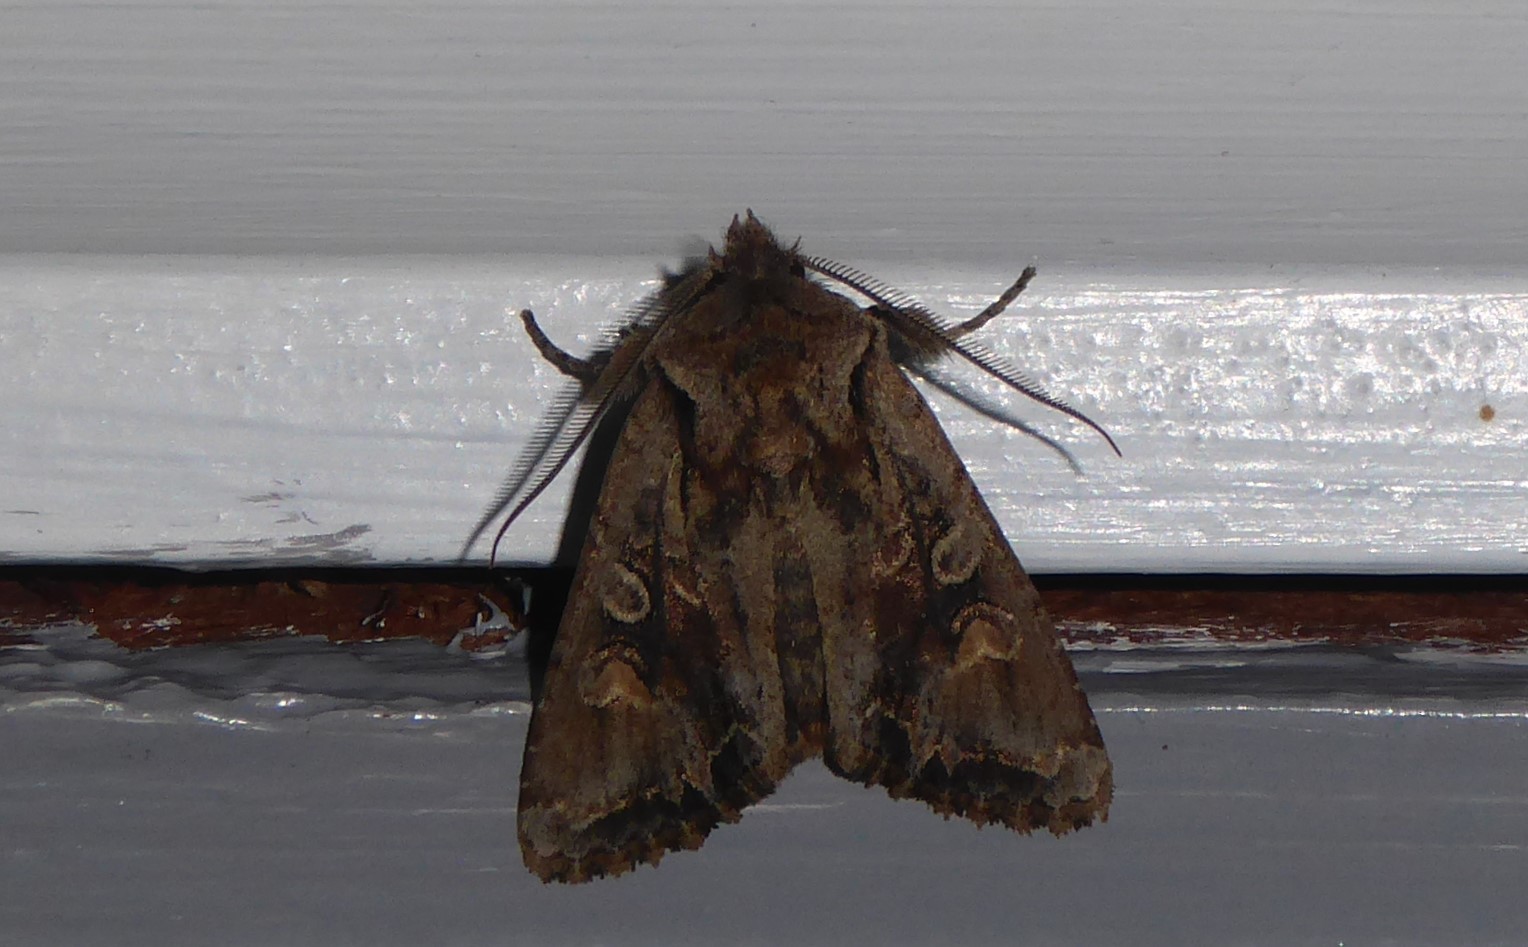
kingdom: Animalia
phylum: Arthropoda
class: Insecta
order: Lepidoptera
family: Noctuidae
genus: Ichneutica
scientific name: Ichneutica skelloni
